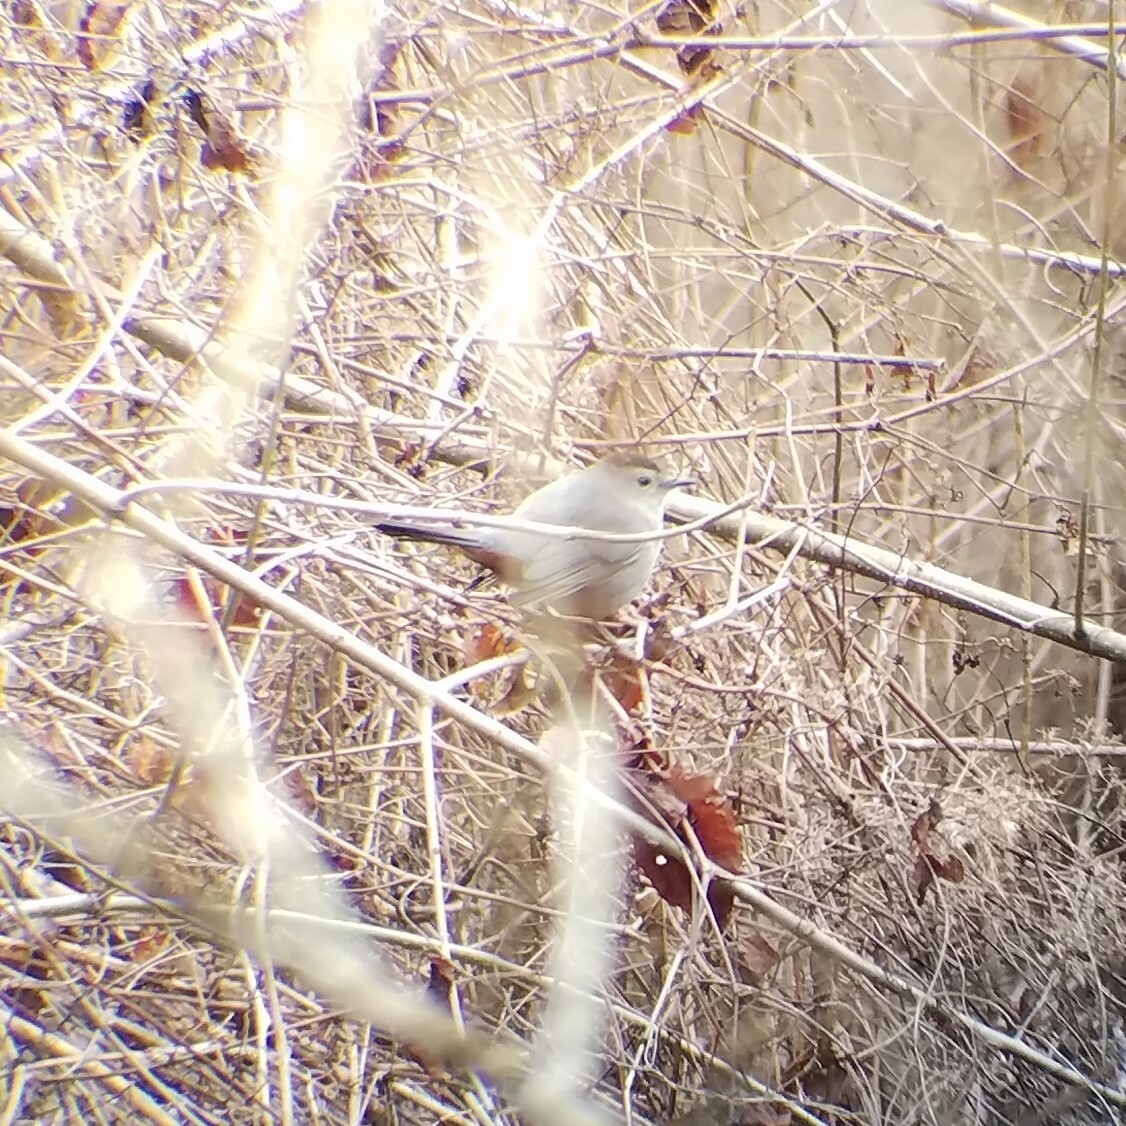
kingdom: Animalia
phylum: Chordata
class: Aves
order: Passeriformes
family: Mimidae
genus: Dumetella
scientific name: Dumetella carolinensis
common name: Gray catbird
